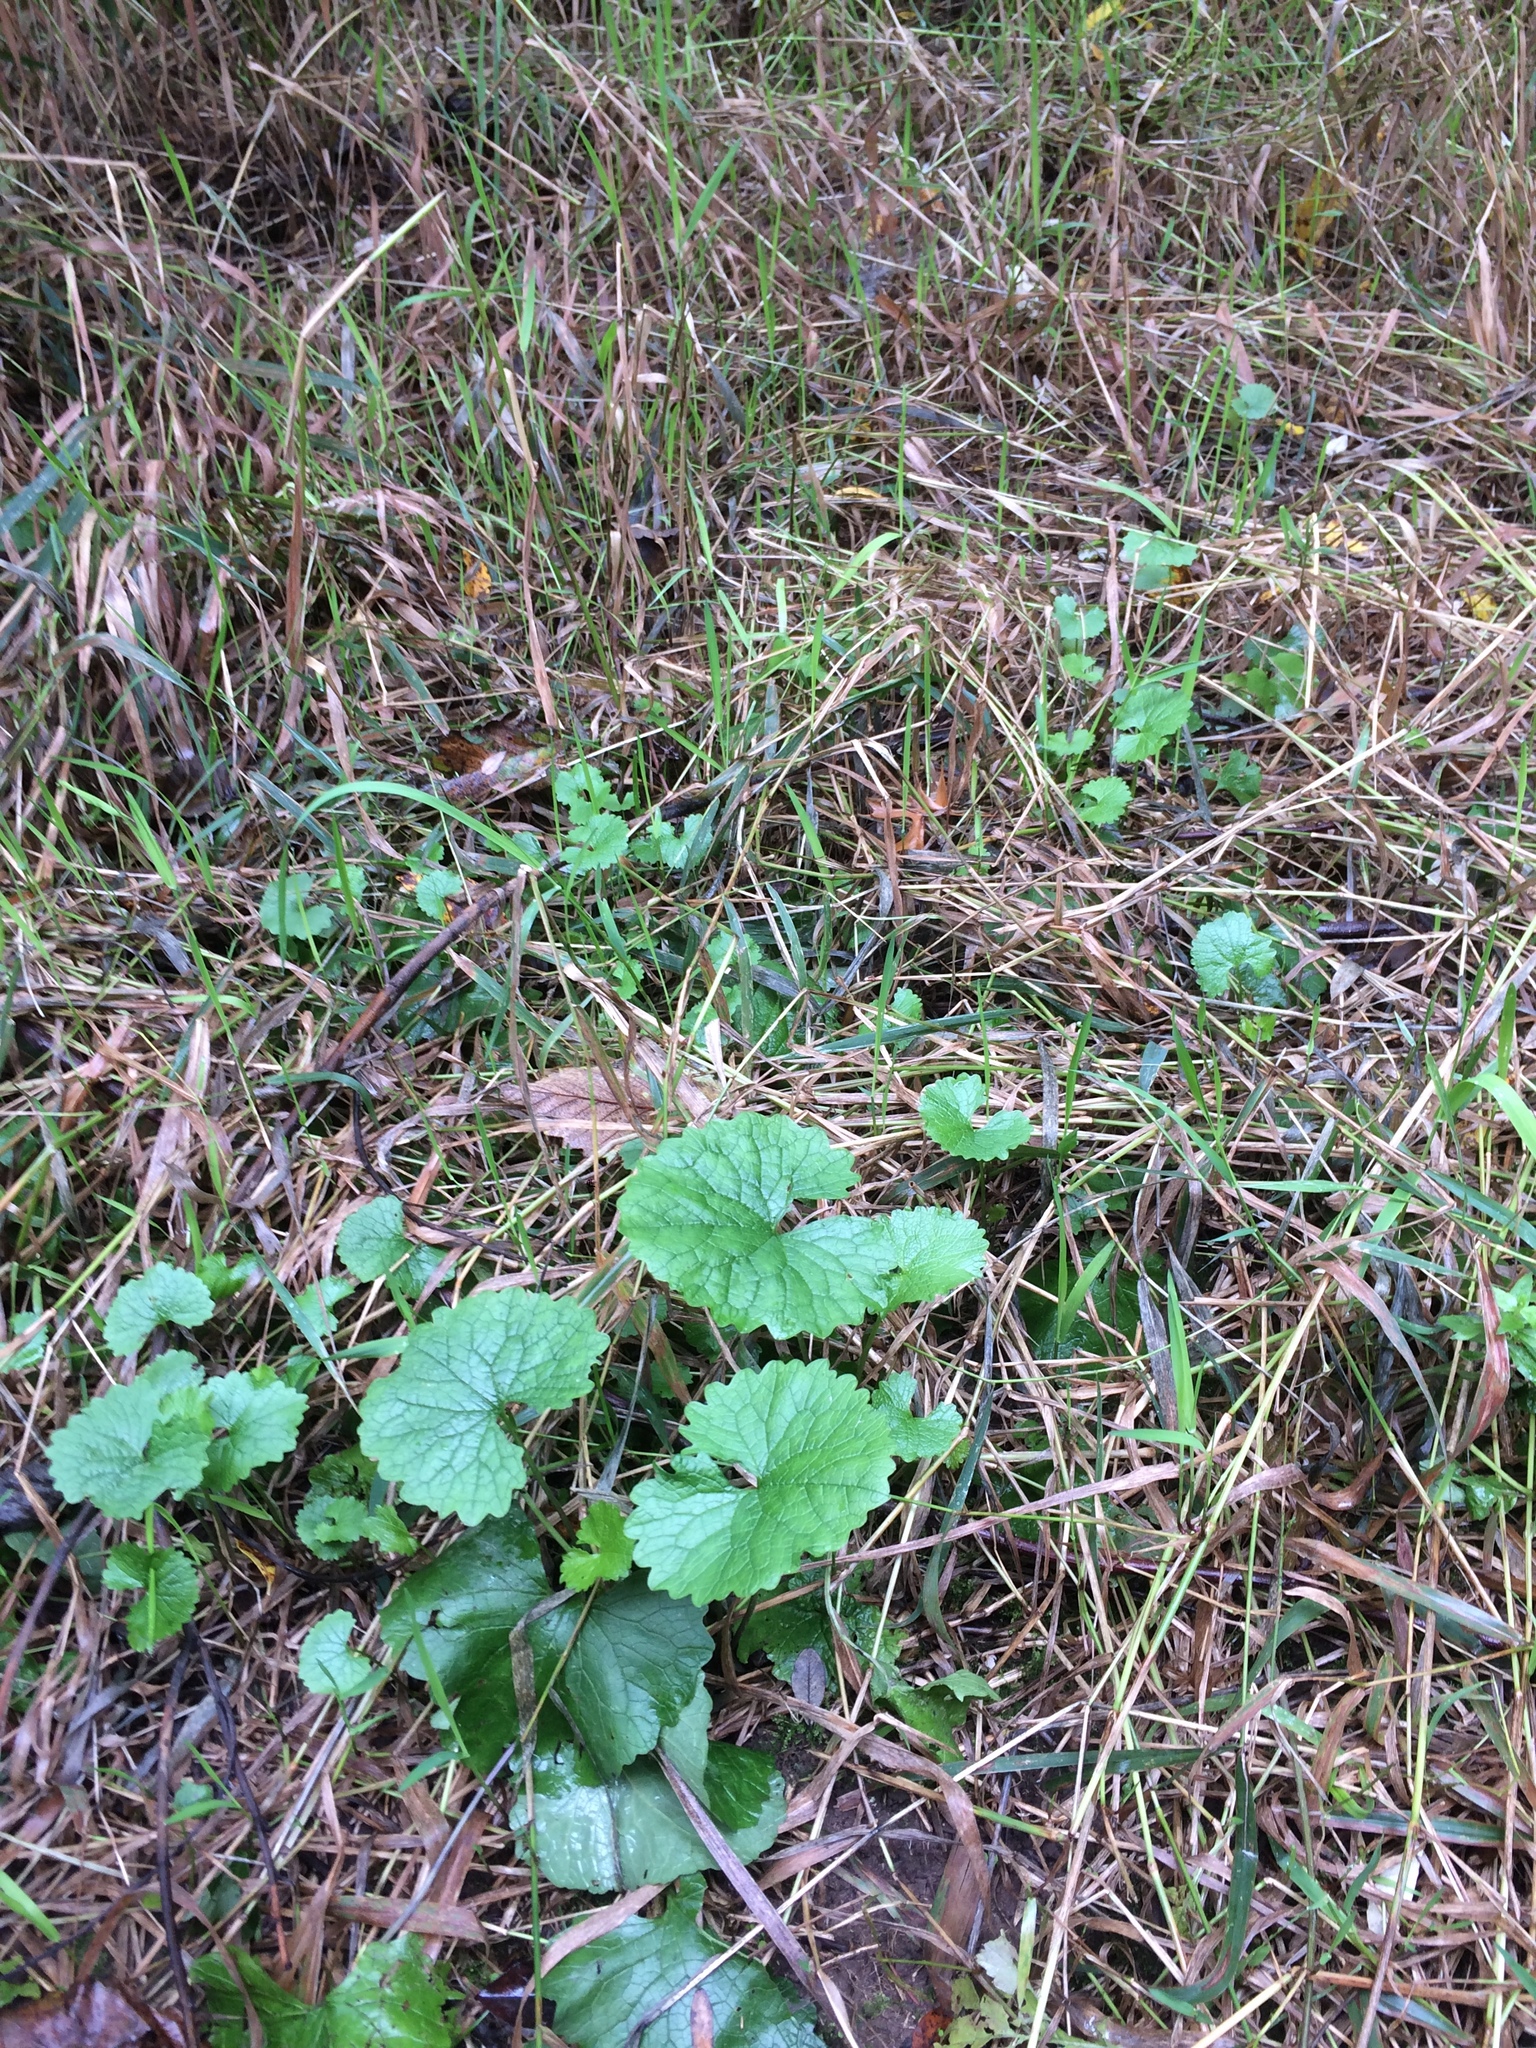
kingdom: Plantae
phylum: Tracheophyta
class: Magnoliopsida
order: Brassicales
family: Brassicaceae
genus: Alliaria
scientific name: Alliaria petiolata
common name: Garlic mustard
